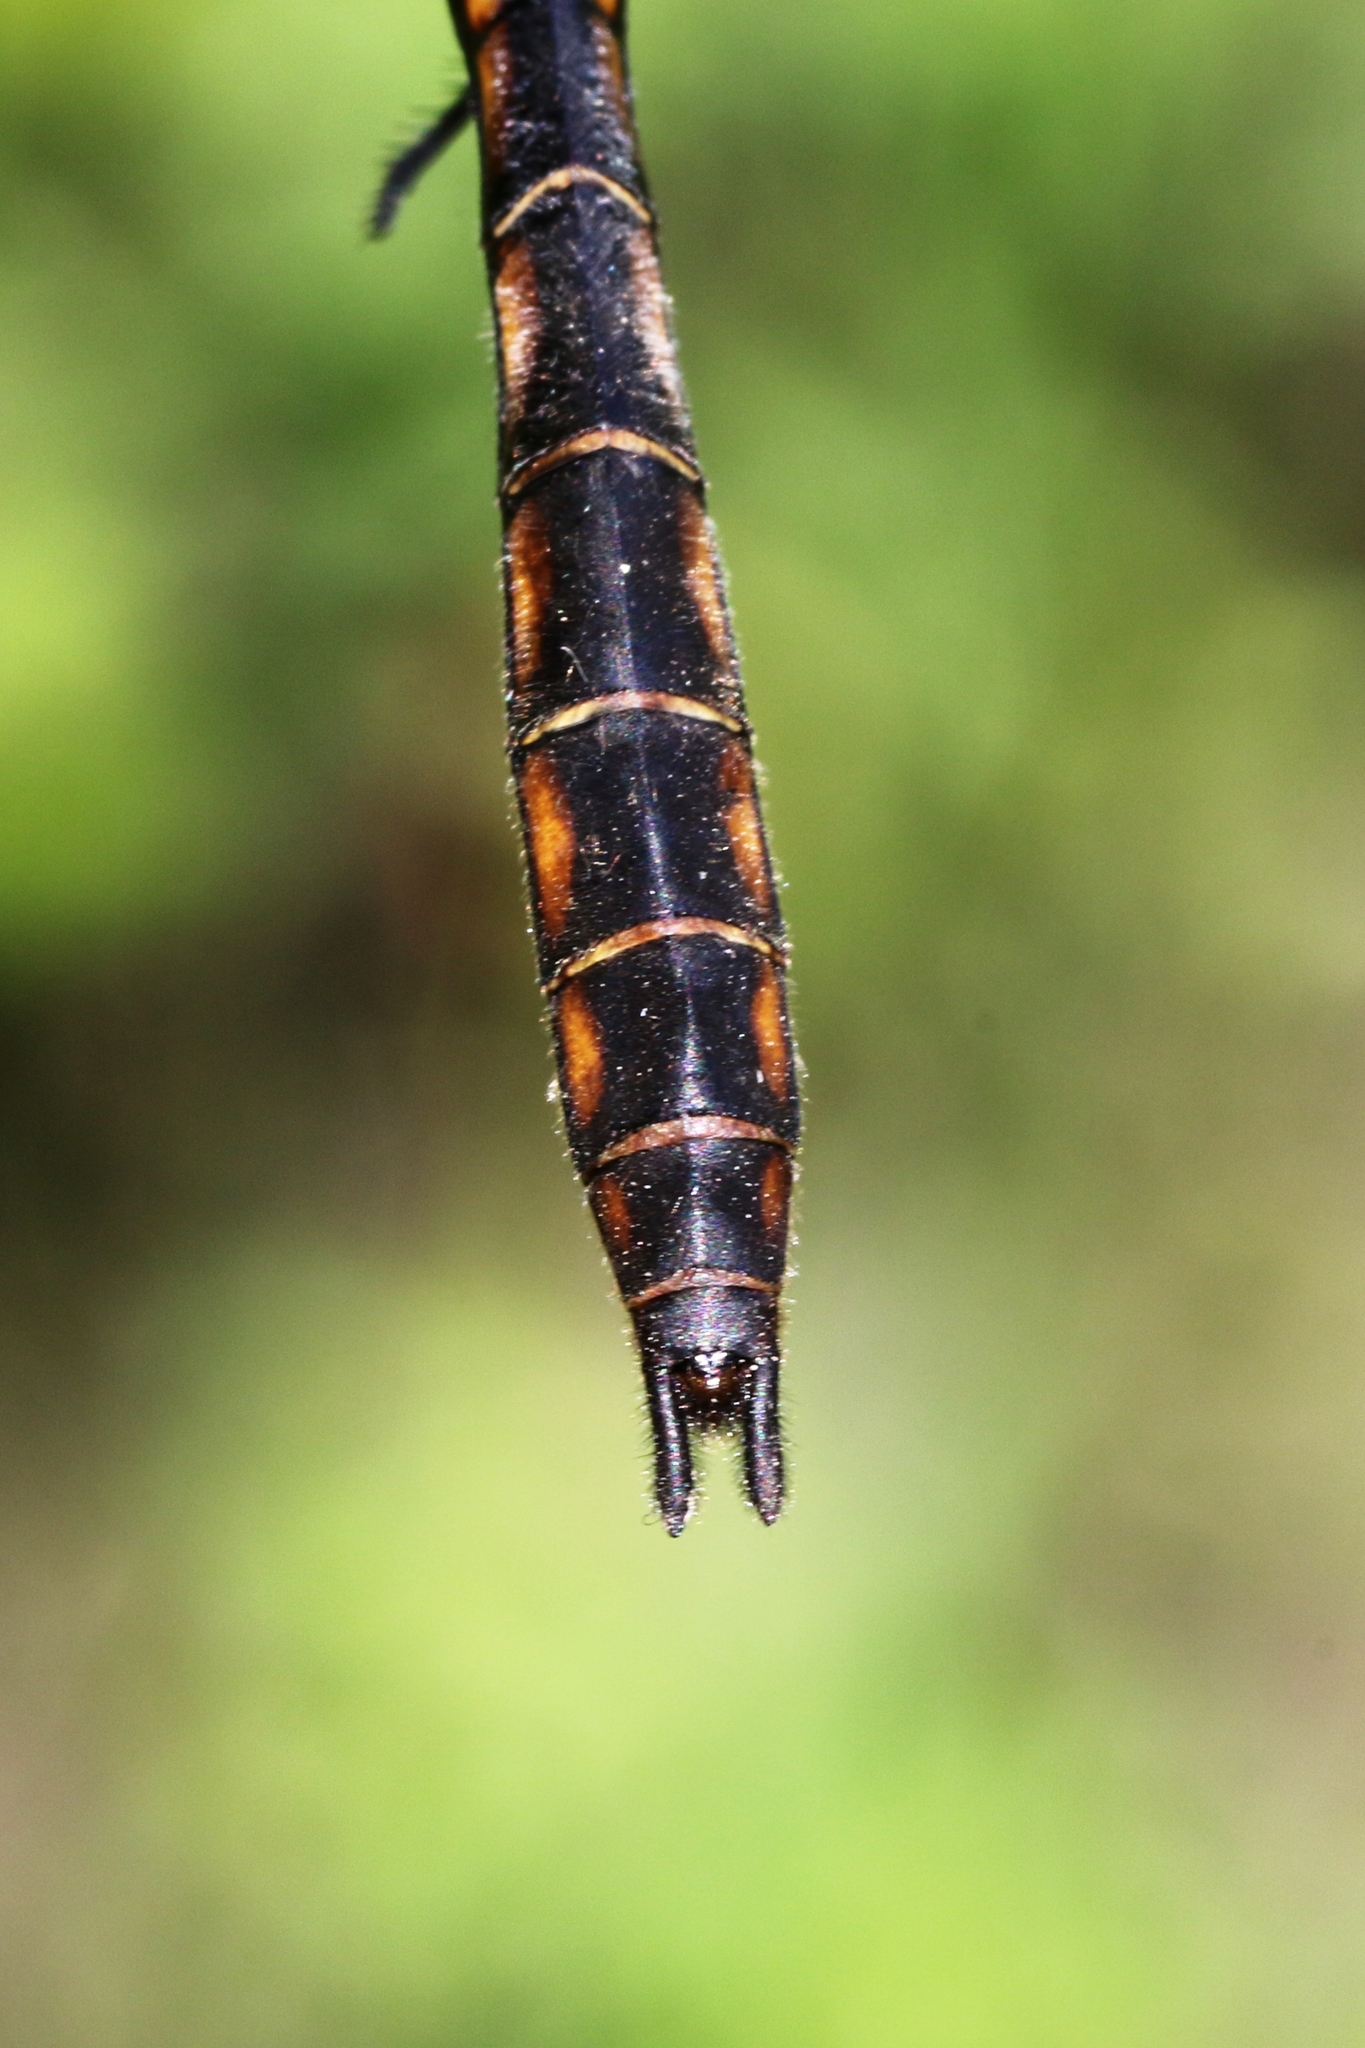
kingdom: Animalia
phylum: Arthropoda
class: Insecta
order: Odonata
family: Corduliidae
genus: Epitheca
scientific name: Epitheca canis
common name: Beaverpond baskettail
